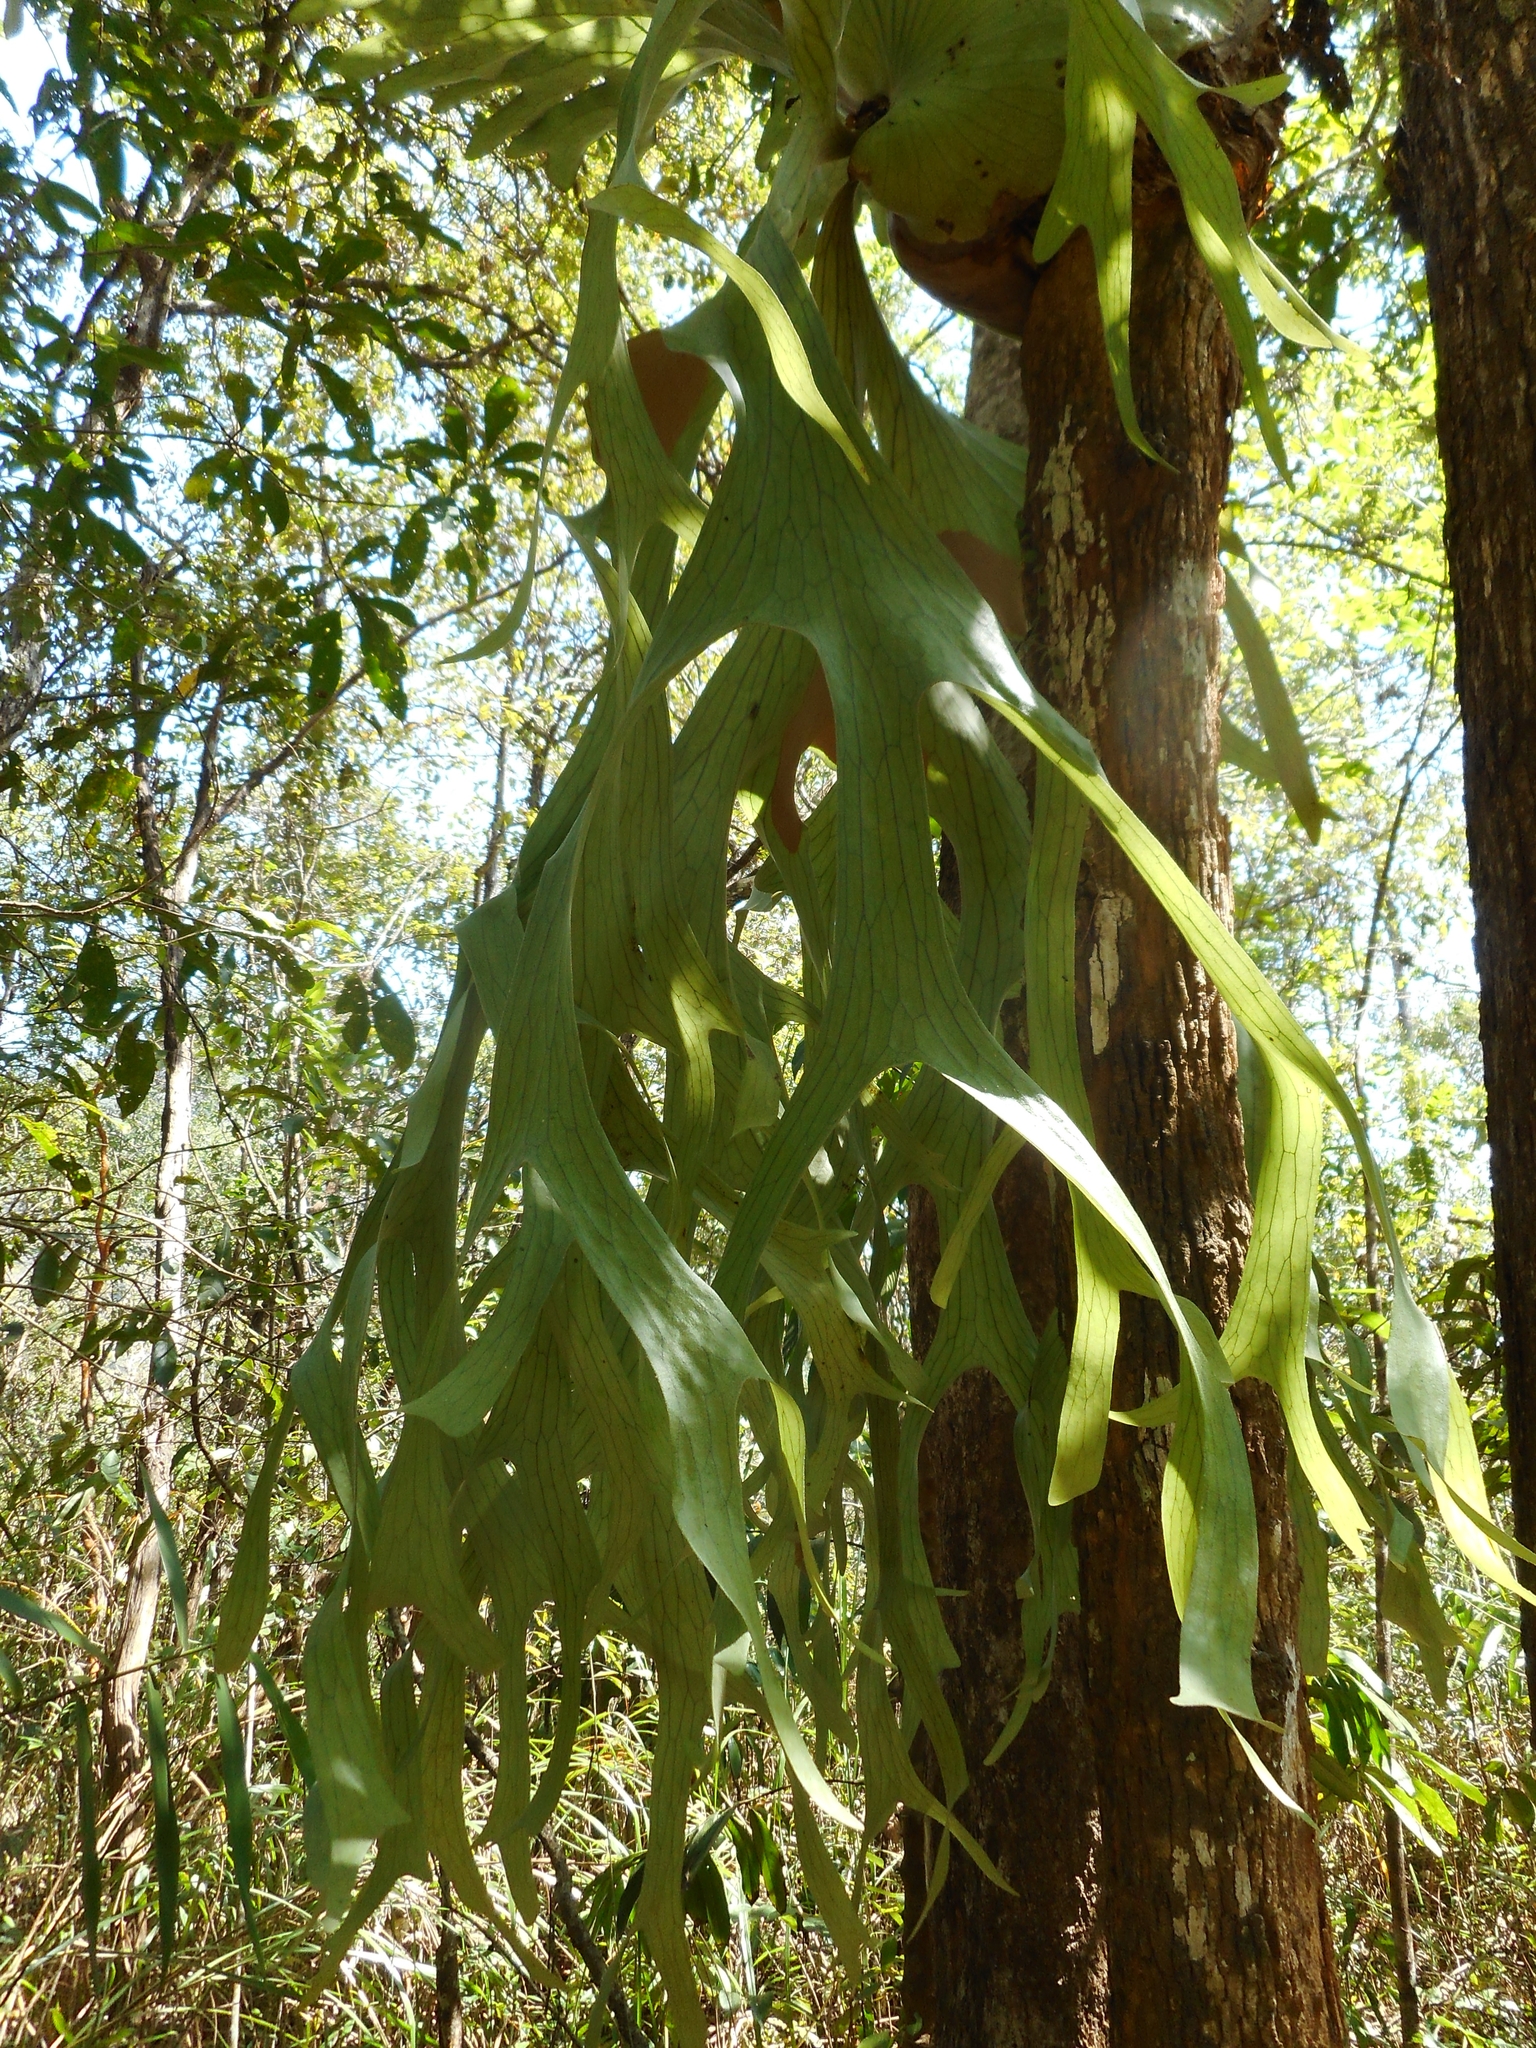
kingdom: Plantae
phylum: Tracheophyta
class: Polypodiopsida
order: Polypodiales
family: Polypodiaceae
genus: Platycerium
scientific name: Platycerium holttumii
